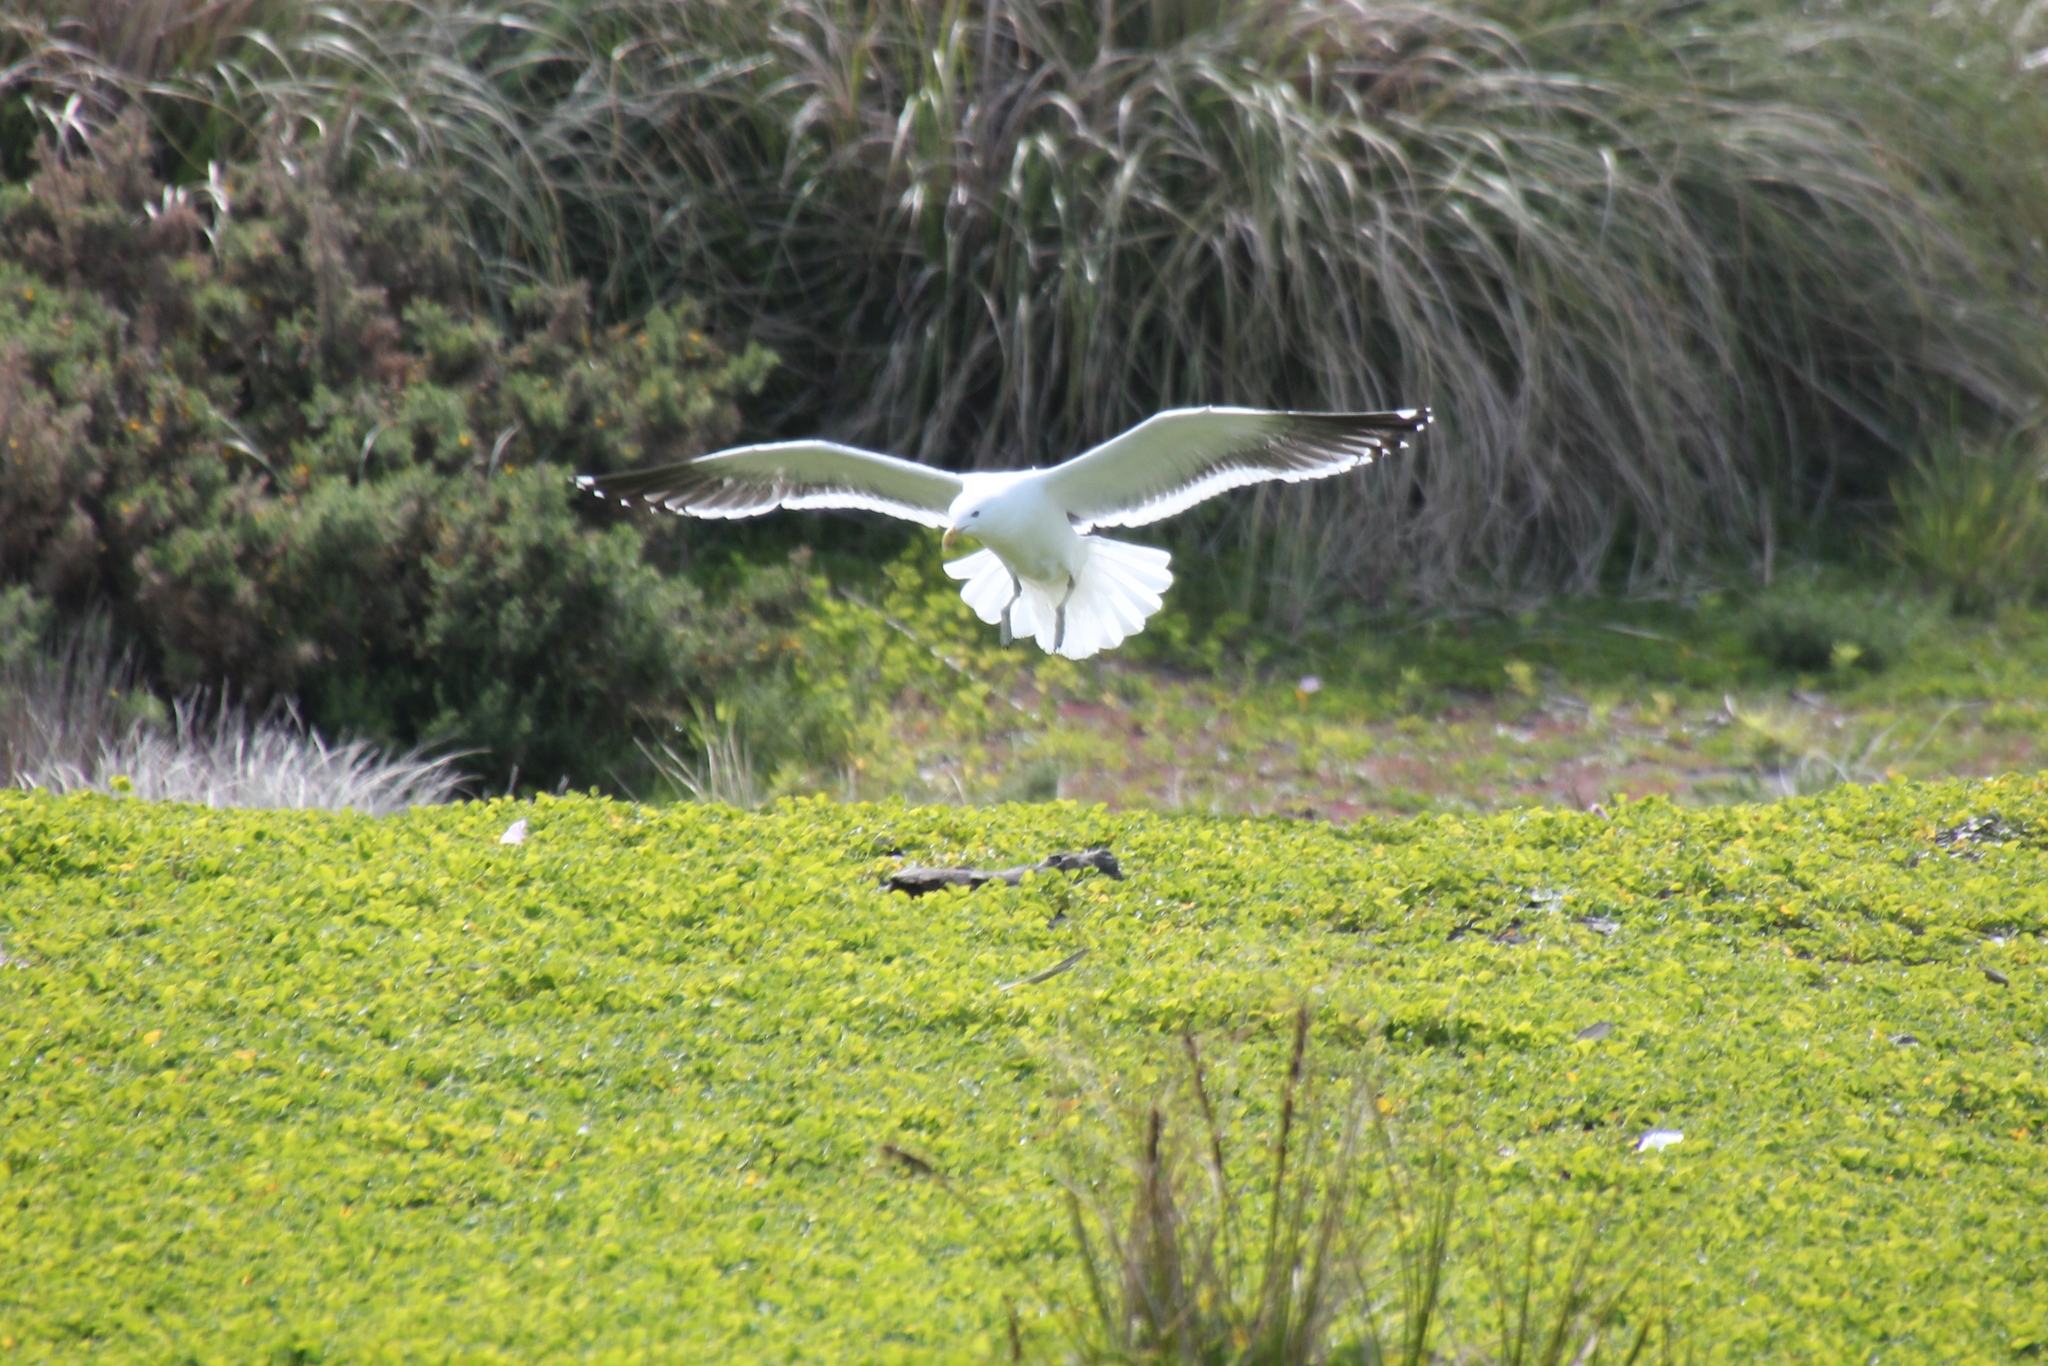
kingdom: Animalia
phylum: Chordata
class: Aves
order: Charadriiformes
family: Laridae
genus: Larus
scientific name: Larus dominicanus
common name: Kelp gull
